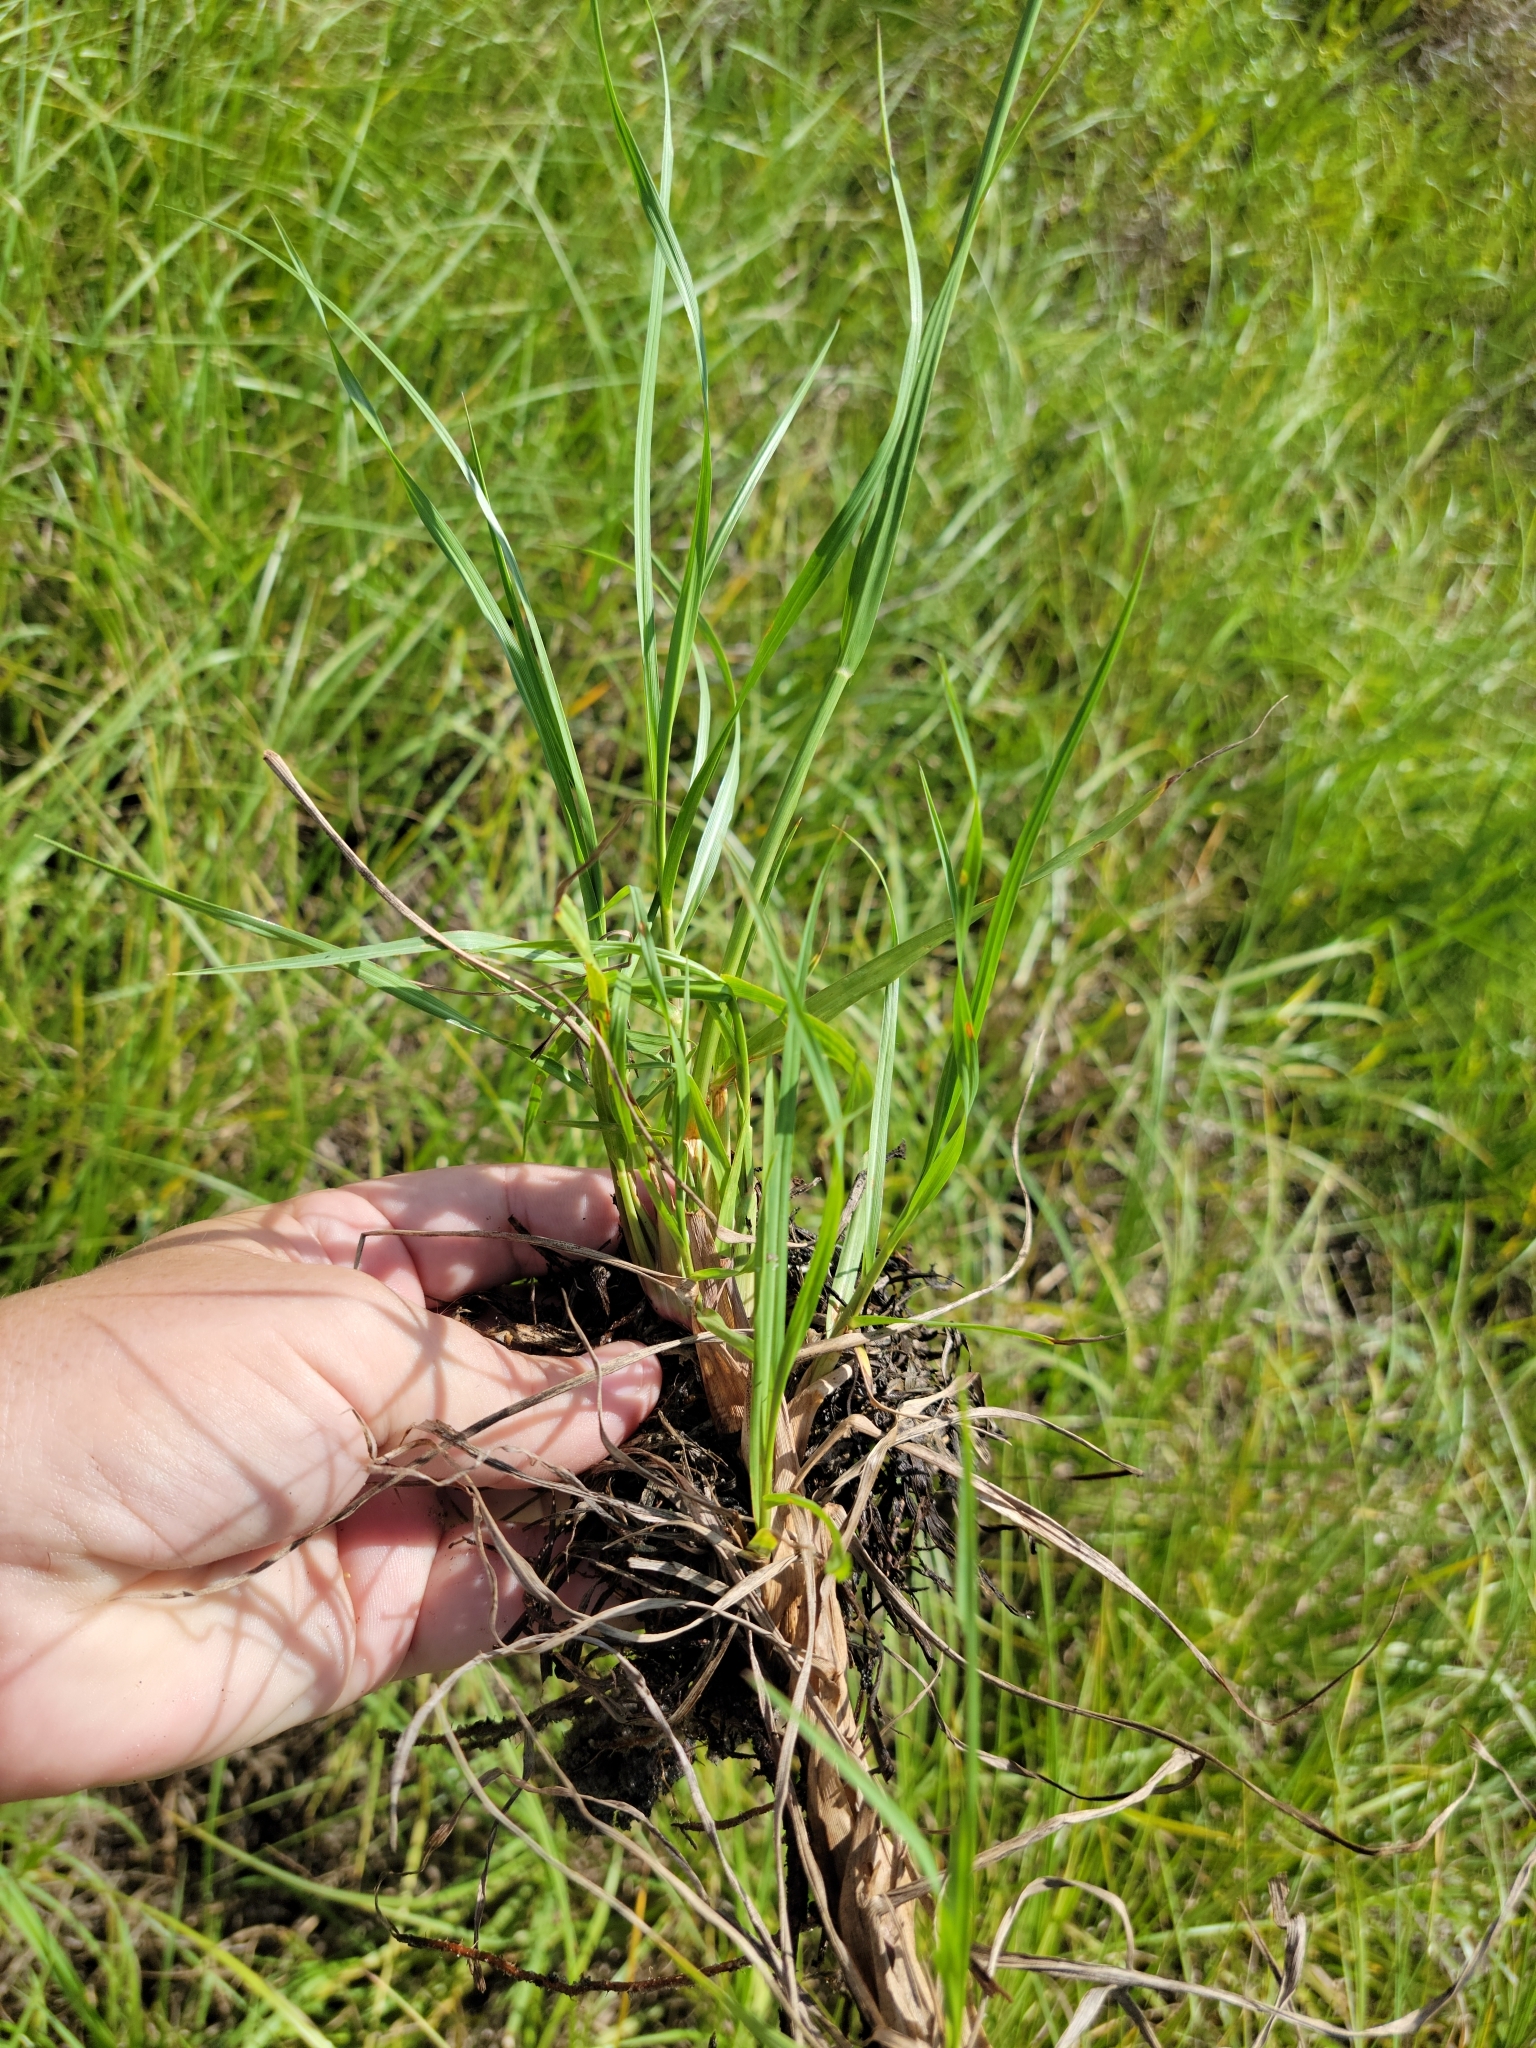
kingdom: Plantae
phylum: Tracheophyta
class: Liliopsida
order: Poales
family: Poaceae
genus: Paspalum
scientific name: Paspalum notatum
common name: Bahiagrass
